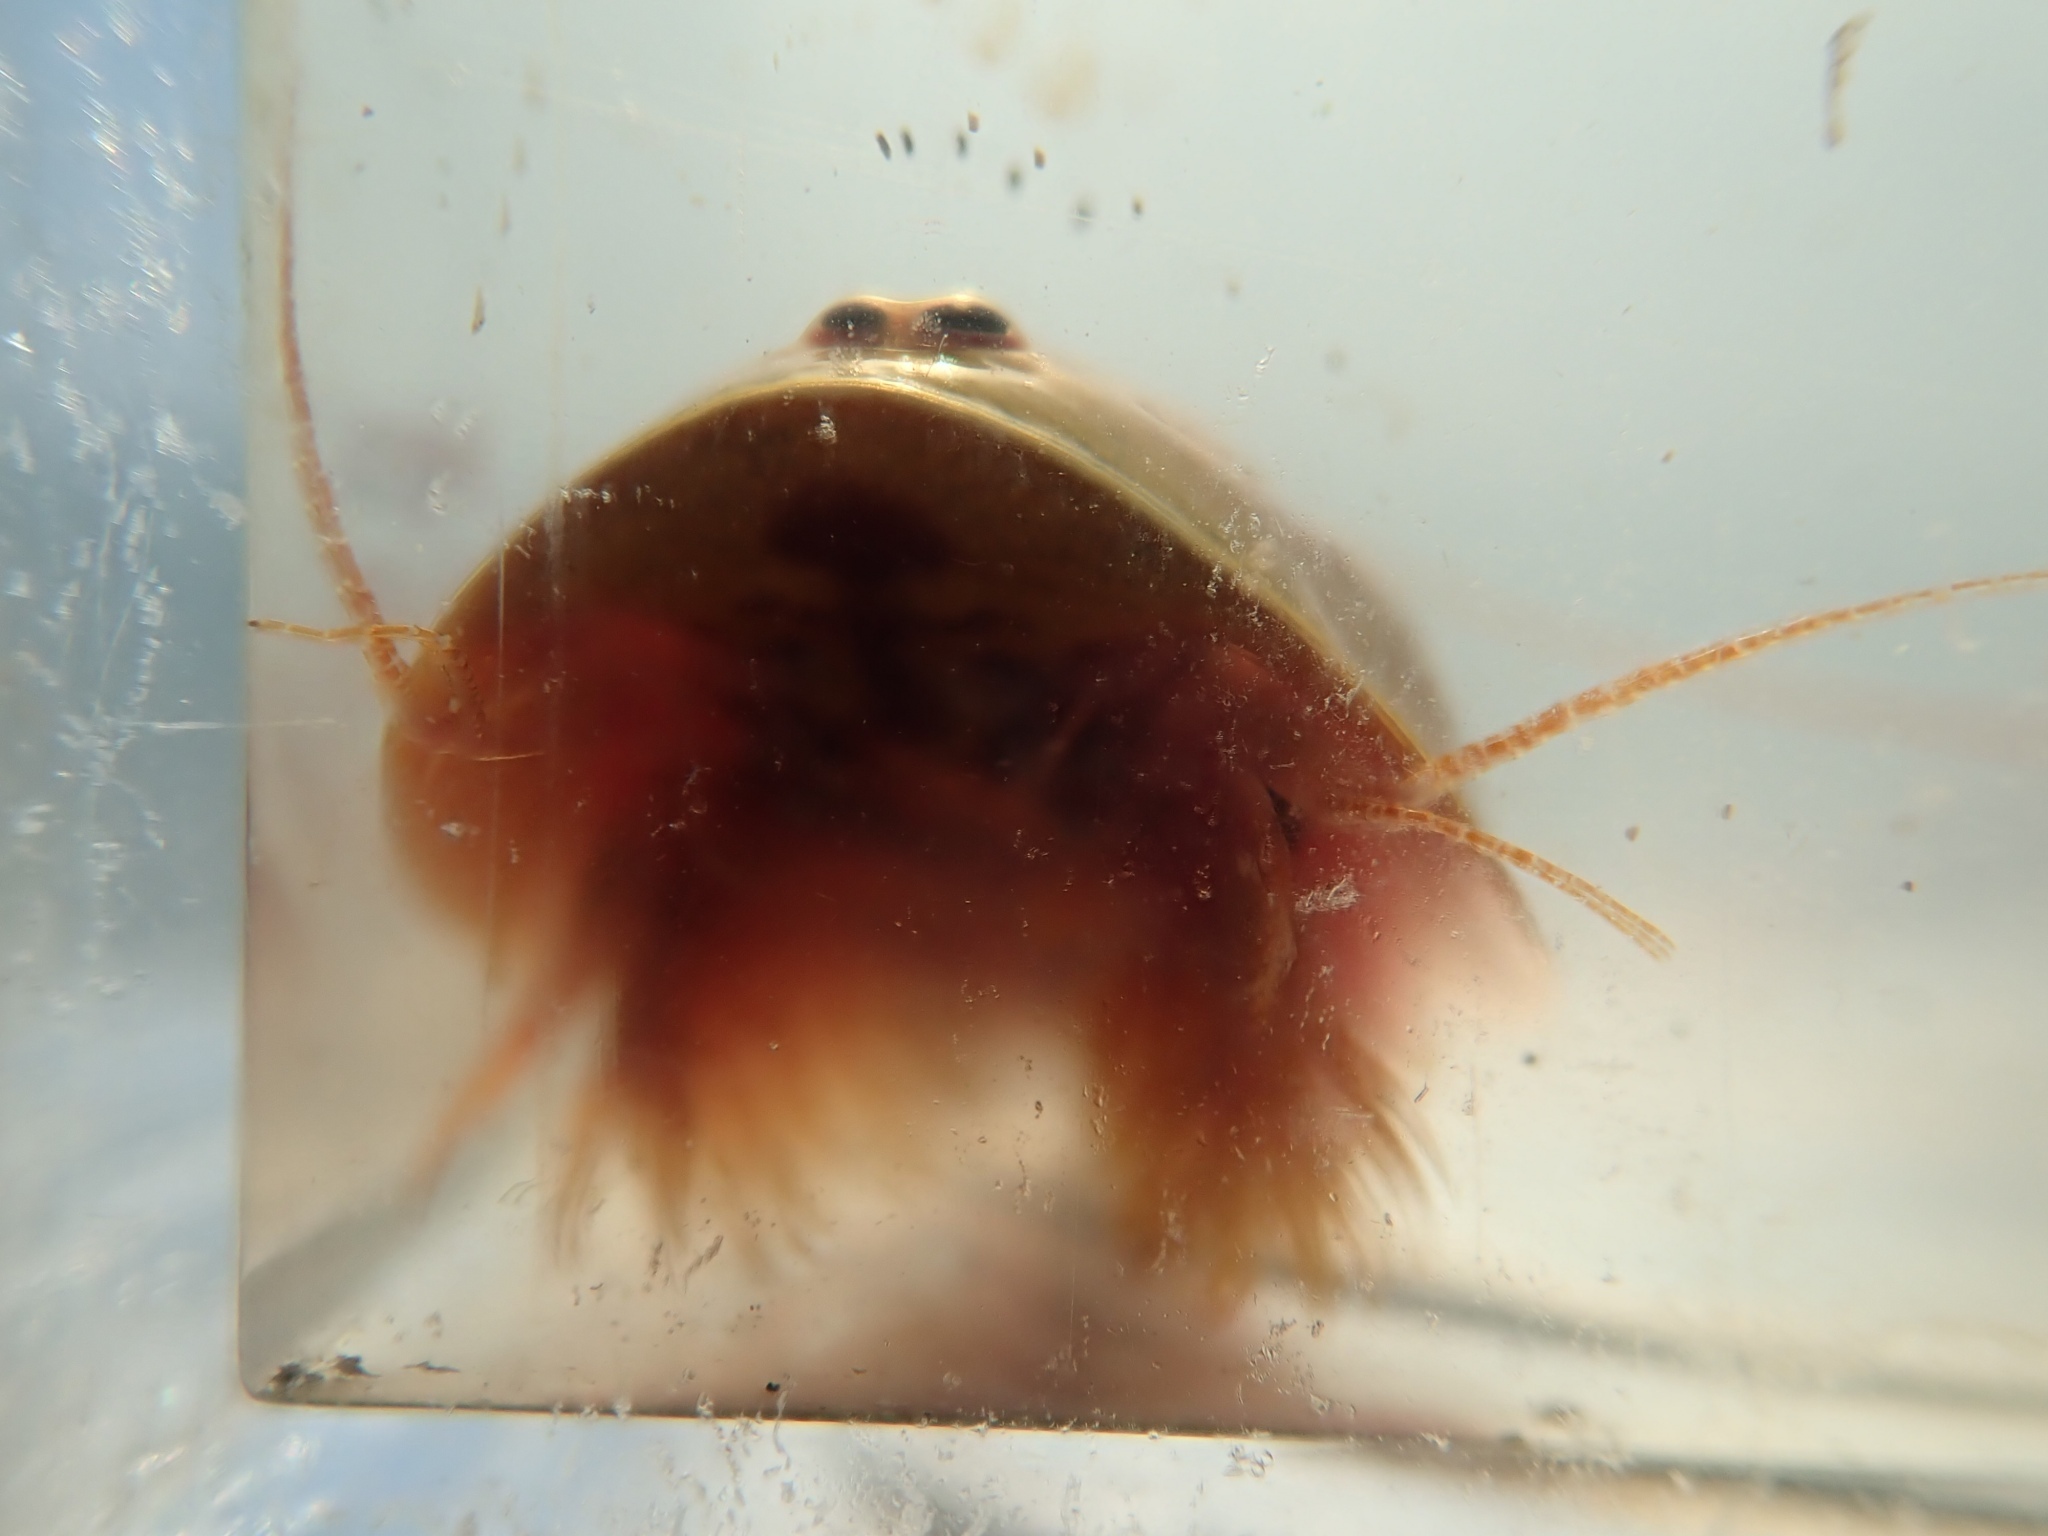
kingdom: Animalia
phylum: Arthropoda
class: Branchiopoda
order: Notostraca
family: Triopsidae
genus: Lepidurus
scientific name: Lepidurus packardi
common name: Vernal pool tadpole shrimp
